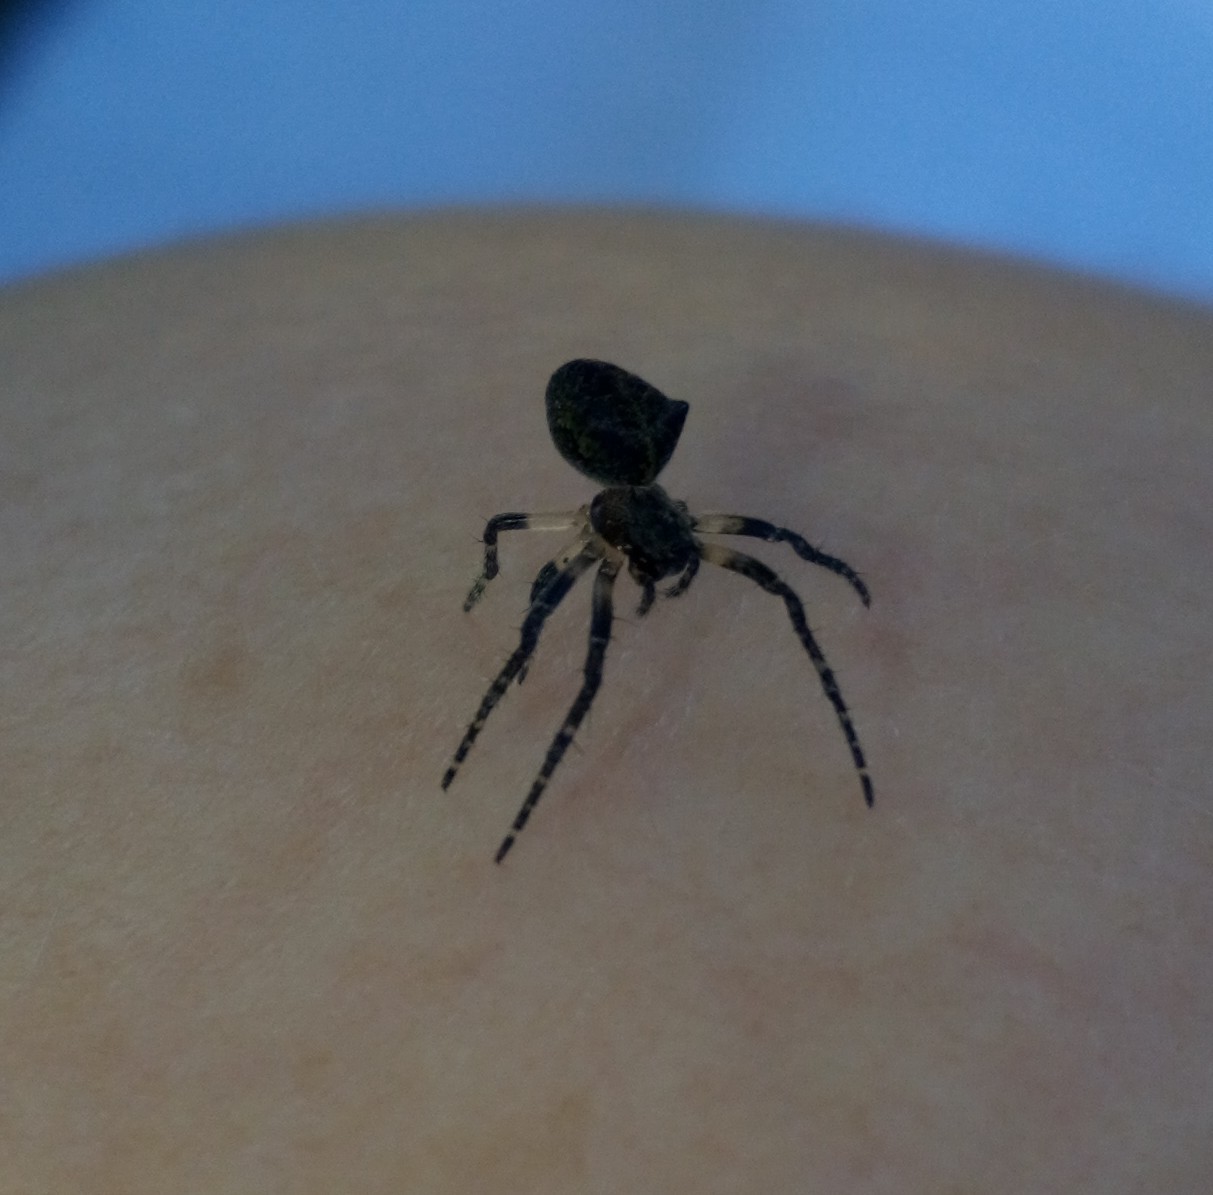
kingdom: Animalia
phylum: Arthropoda
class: Arachnida
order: Araneae
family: Araneidae
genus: Gibbaranea
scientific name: Gibbaranea gibbosa
